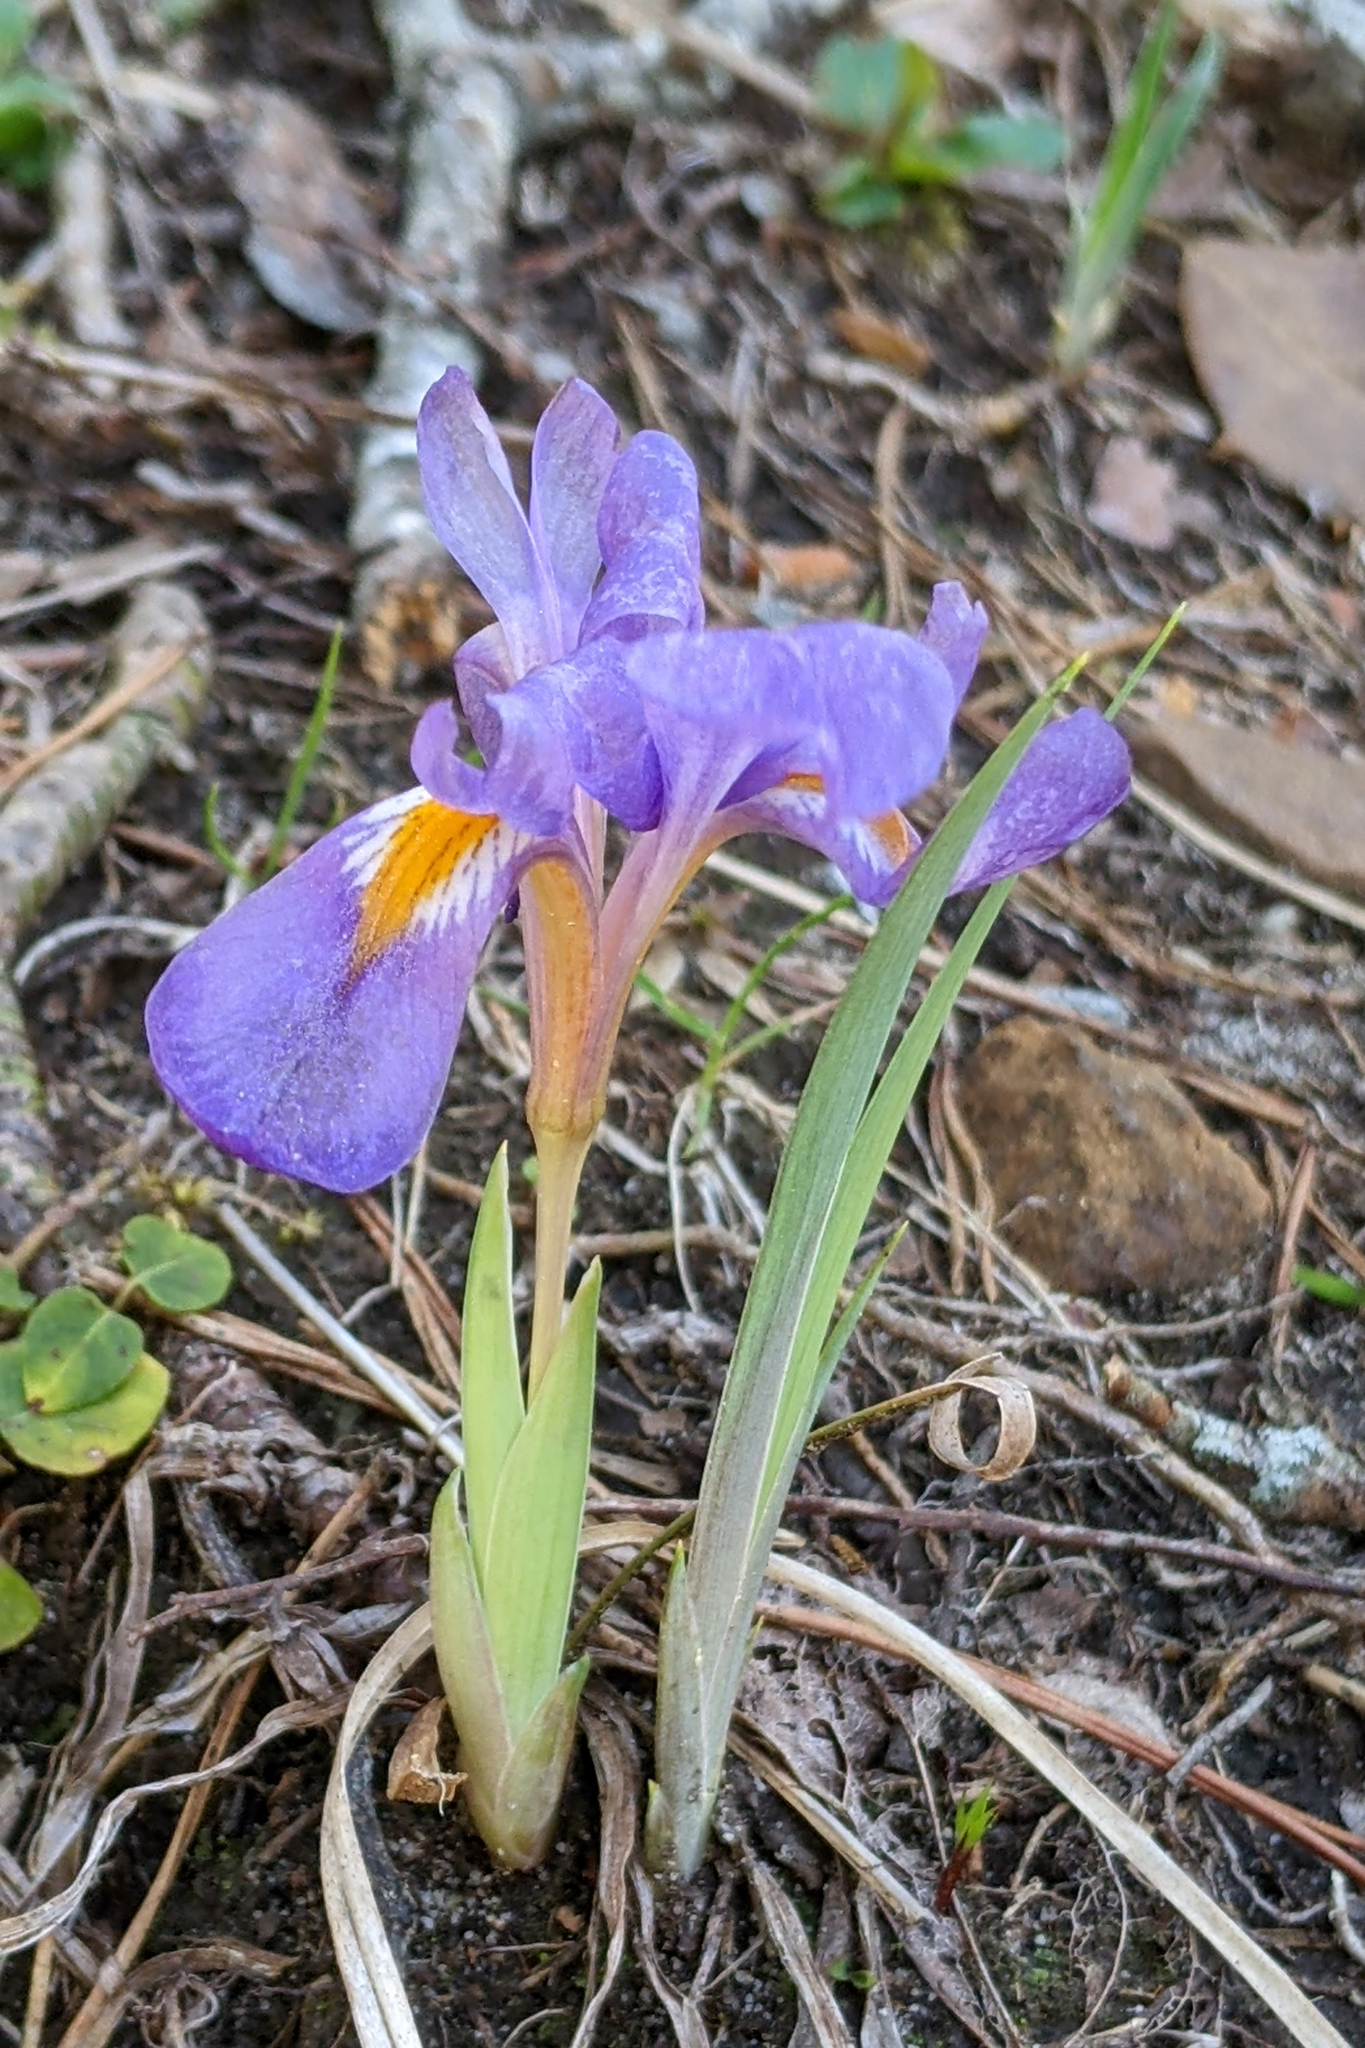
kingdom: Plantae
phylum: Tracheophyta
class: Liliopsida
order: Asparagales
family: Iridaceae
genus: Iris
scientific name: Iris verna
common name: Dwarf iris
